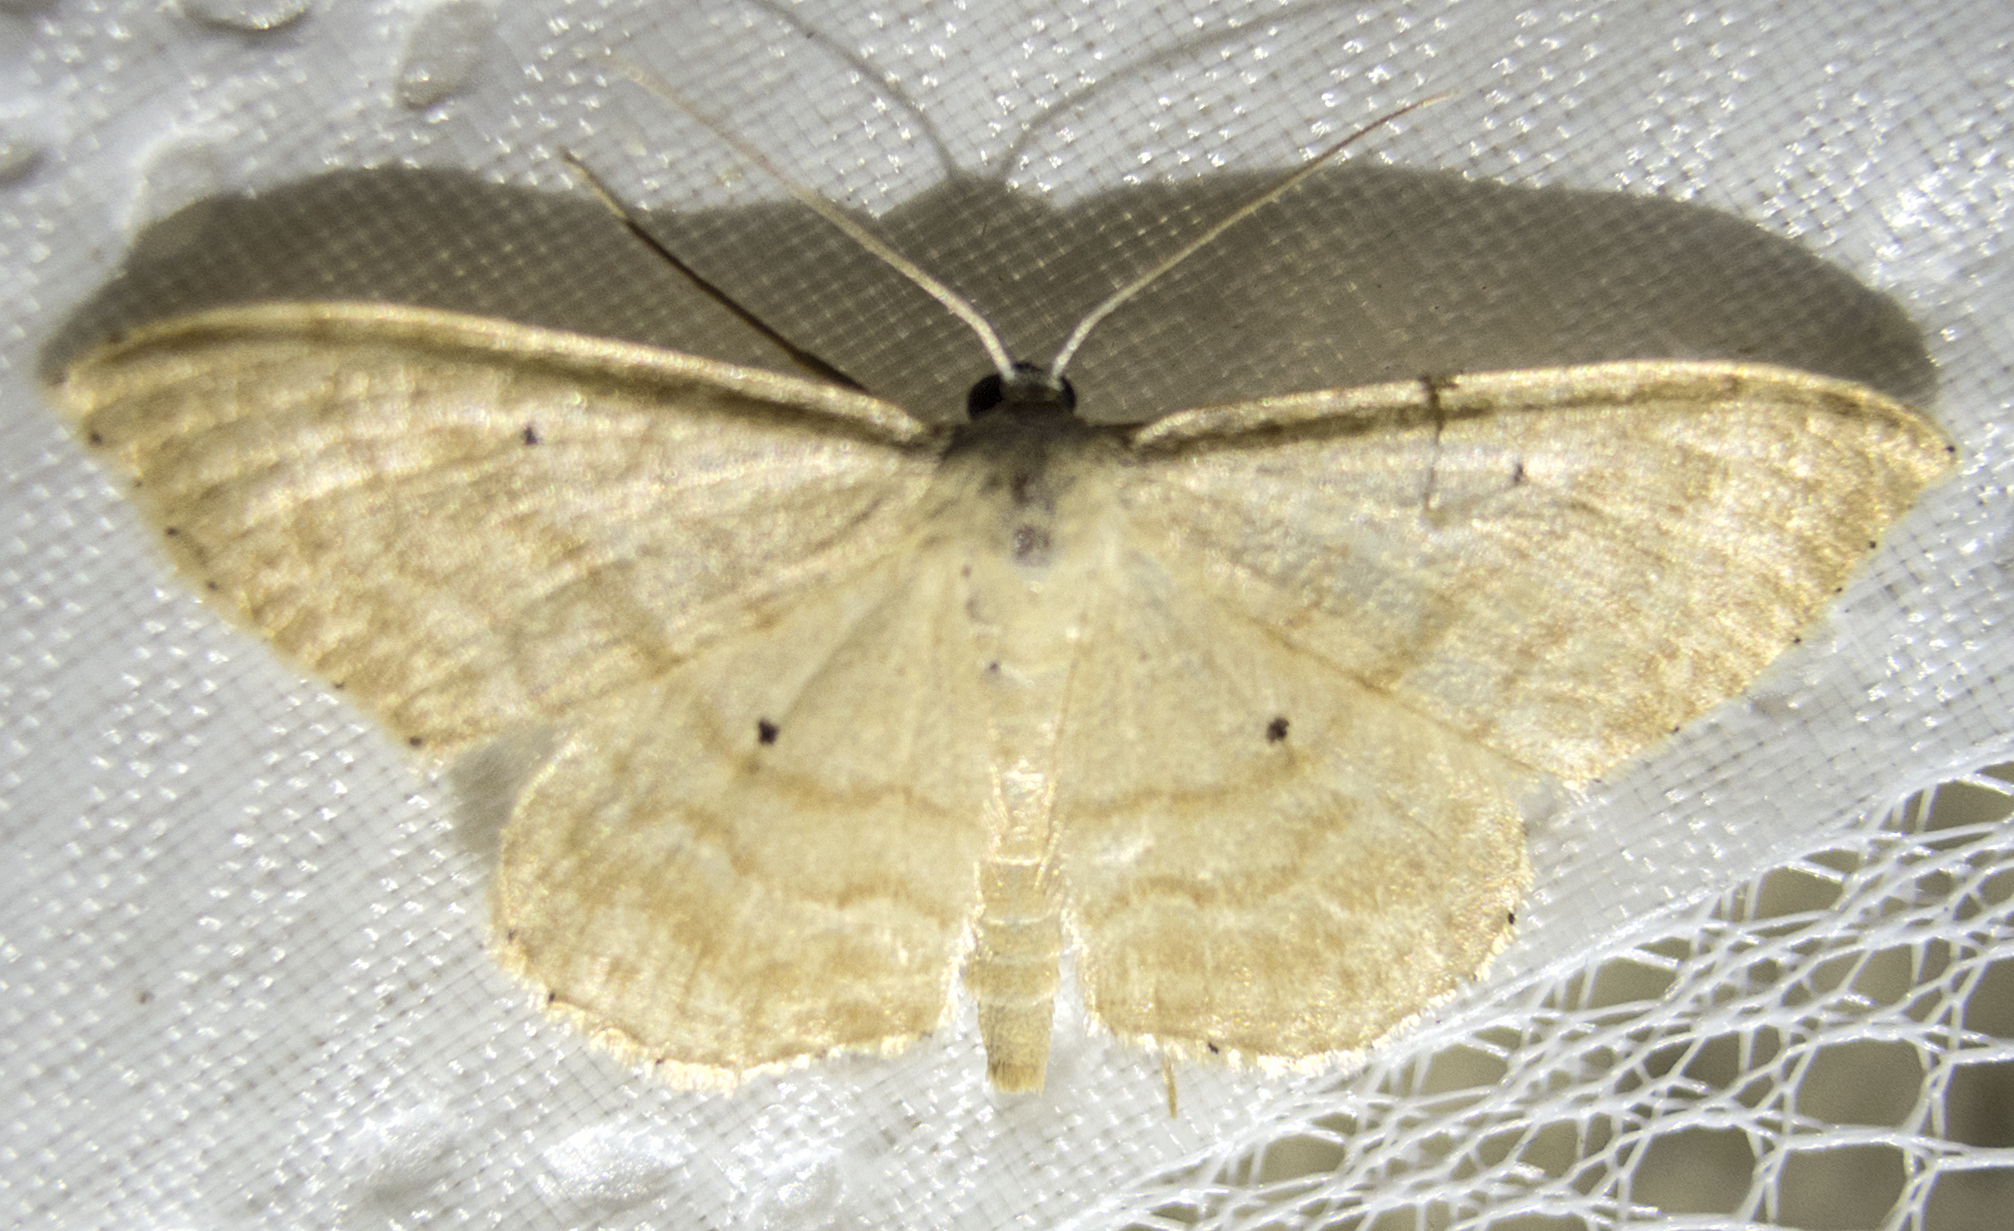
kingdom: Animalia
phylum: Arthropoda
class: Insecta
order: Lepidoptera
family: Geometridae
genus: Idaea
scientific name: Idaea rufaria
